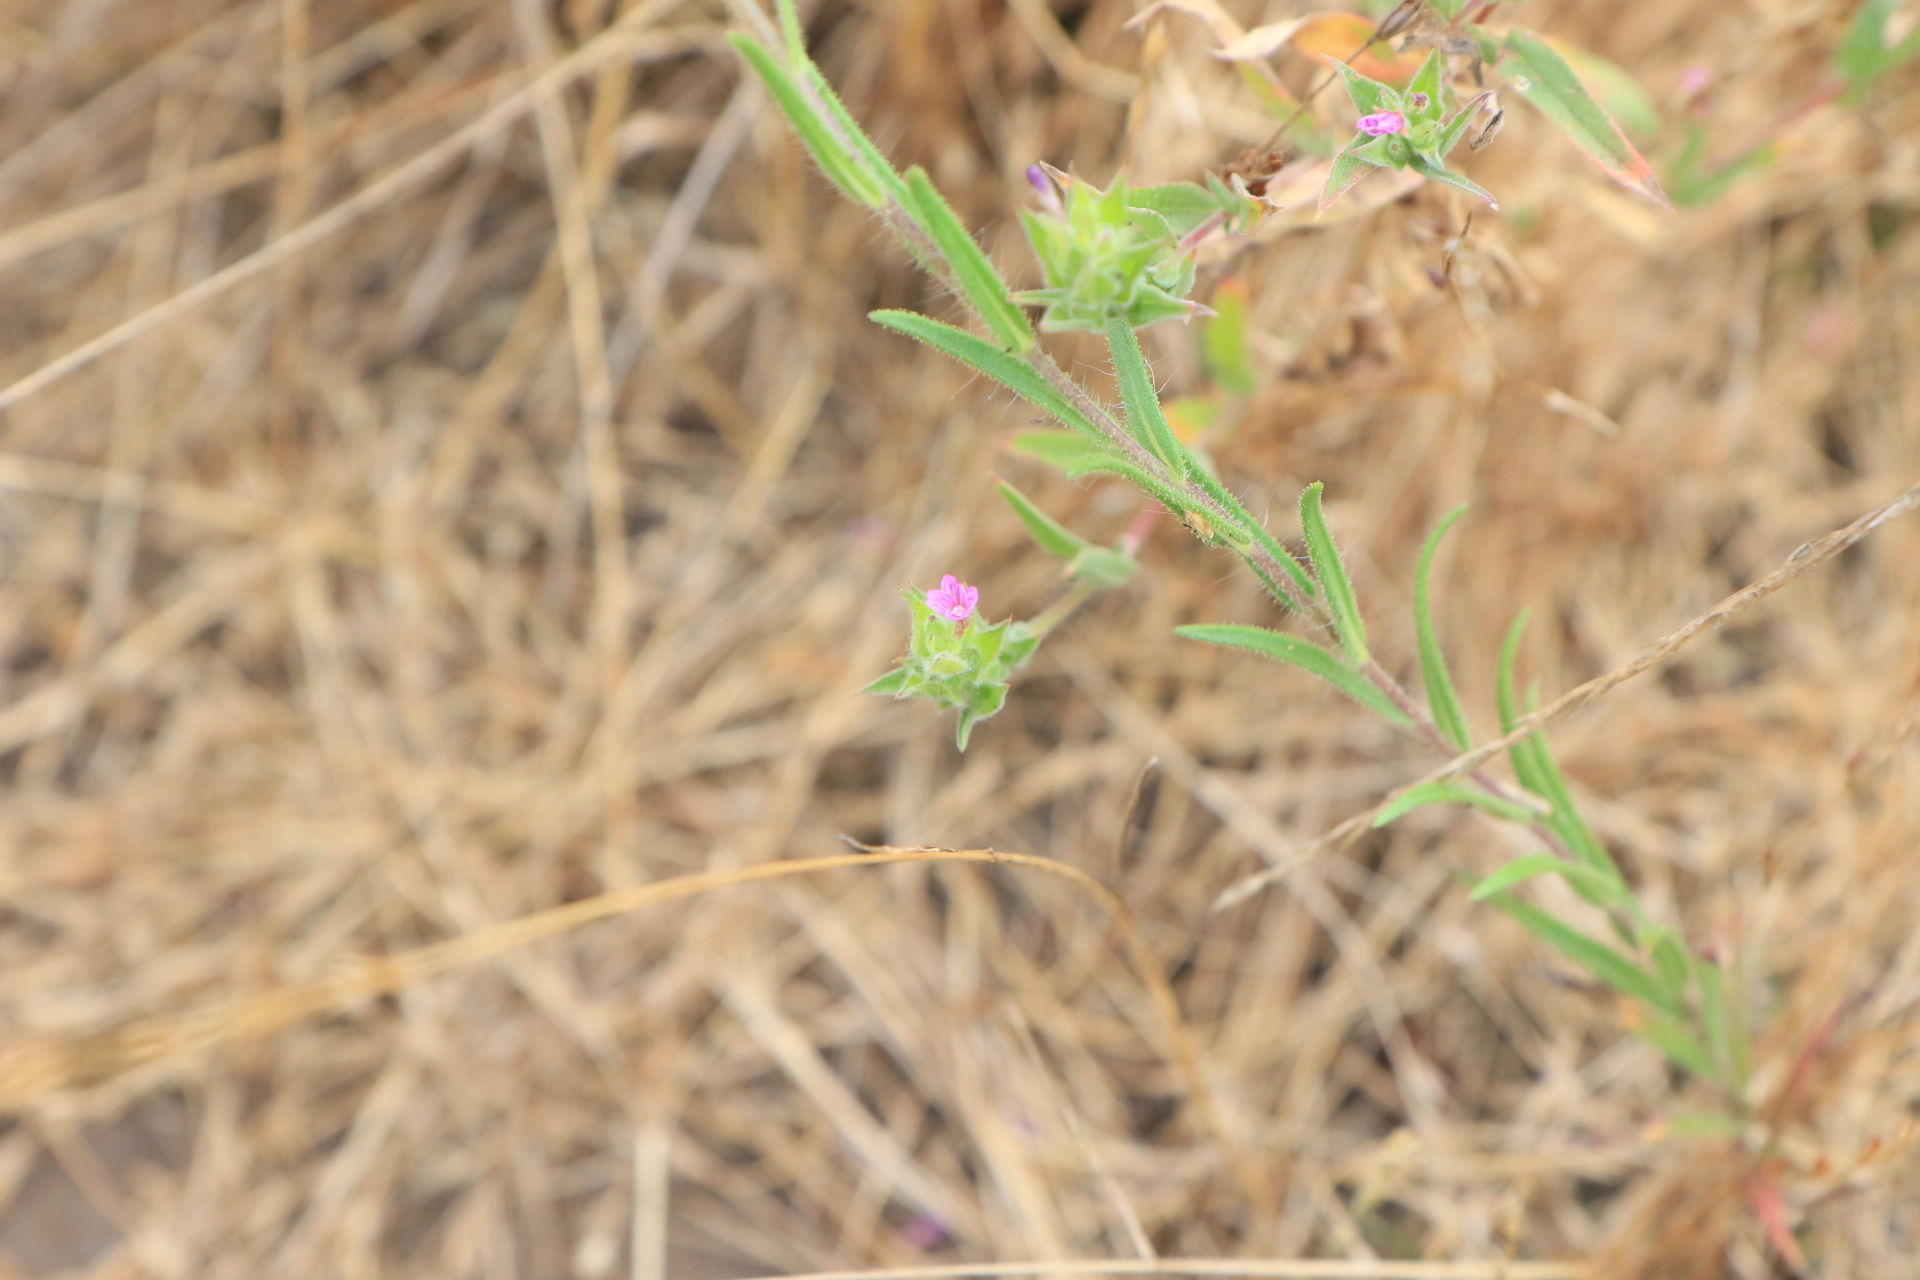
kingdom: Plantae
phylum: Tracheophyta
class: Magnoliopsida
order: Myrtales
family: Onagraceae
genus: Epilobium
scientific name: Epilobium densiflorum
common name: Dense spike-primrose
